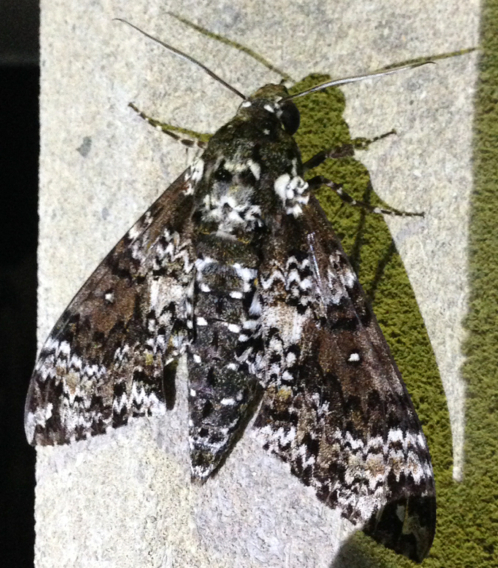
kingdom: Animalia
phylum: Arthropoda
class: Insecta
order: Lepidoptera
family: Sphingidae
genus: Manduca
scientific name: Manduca rustica
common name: Rustic sphinx
